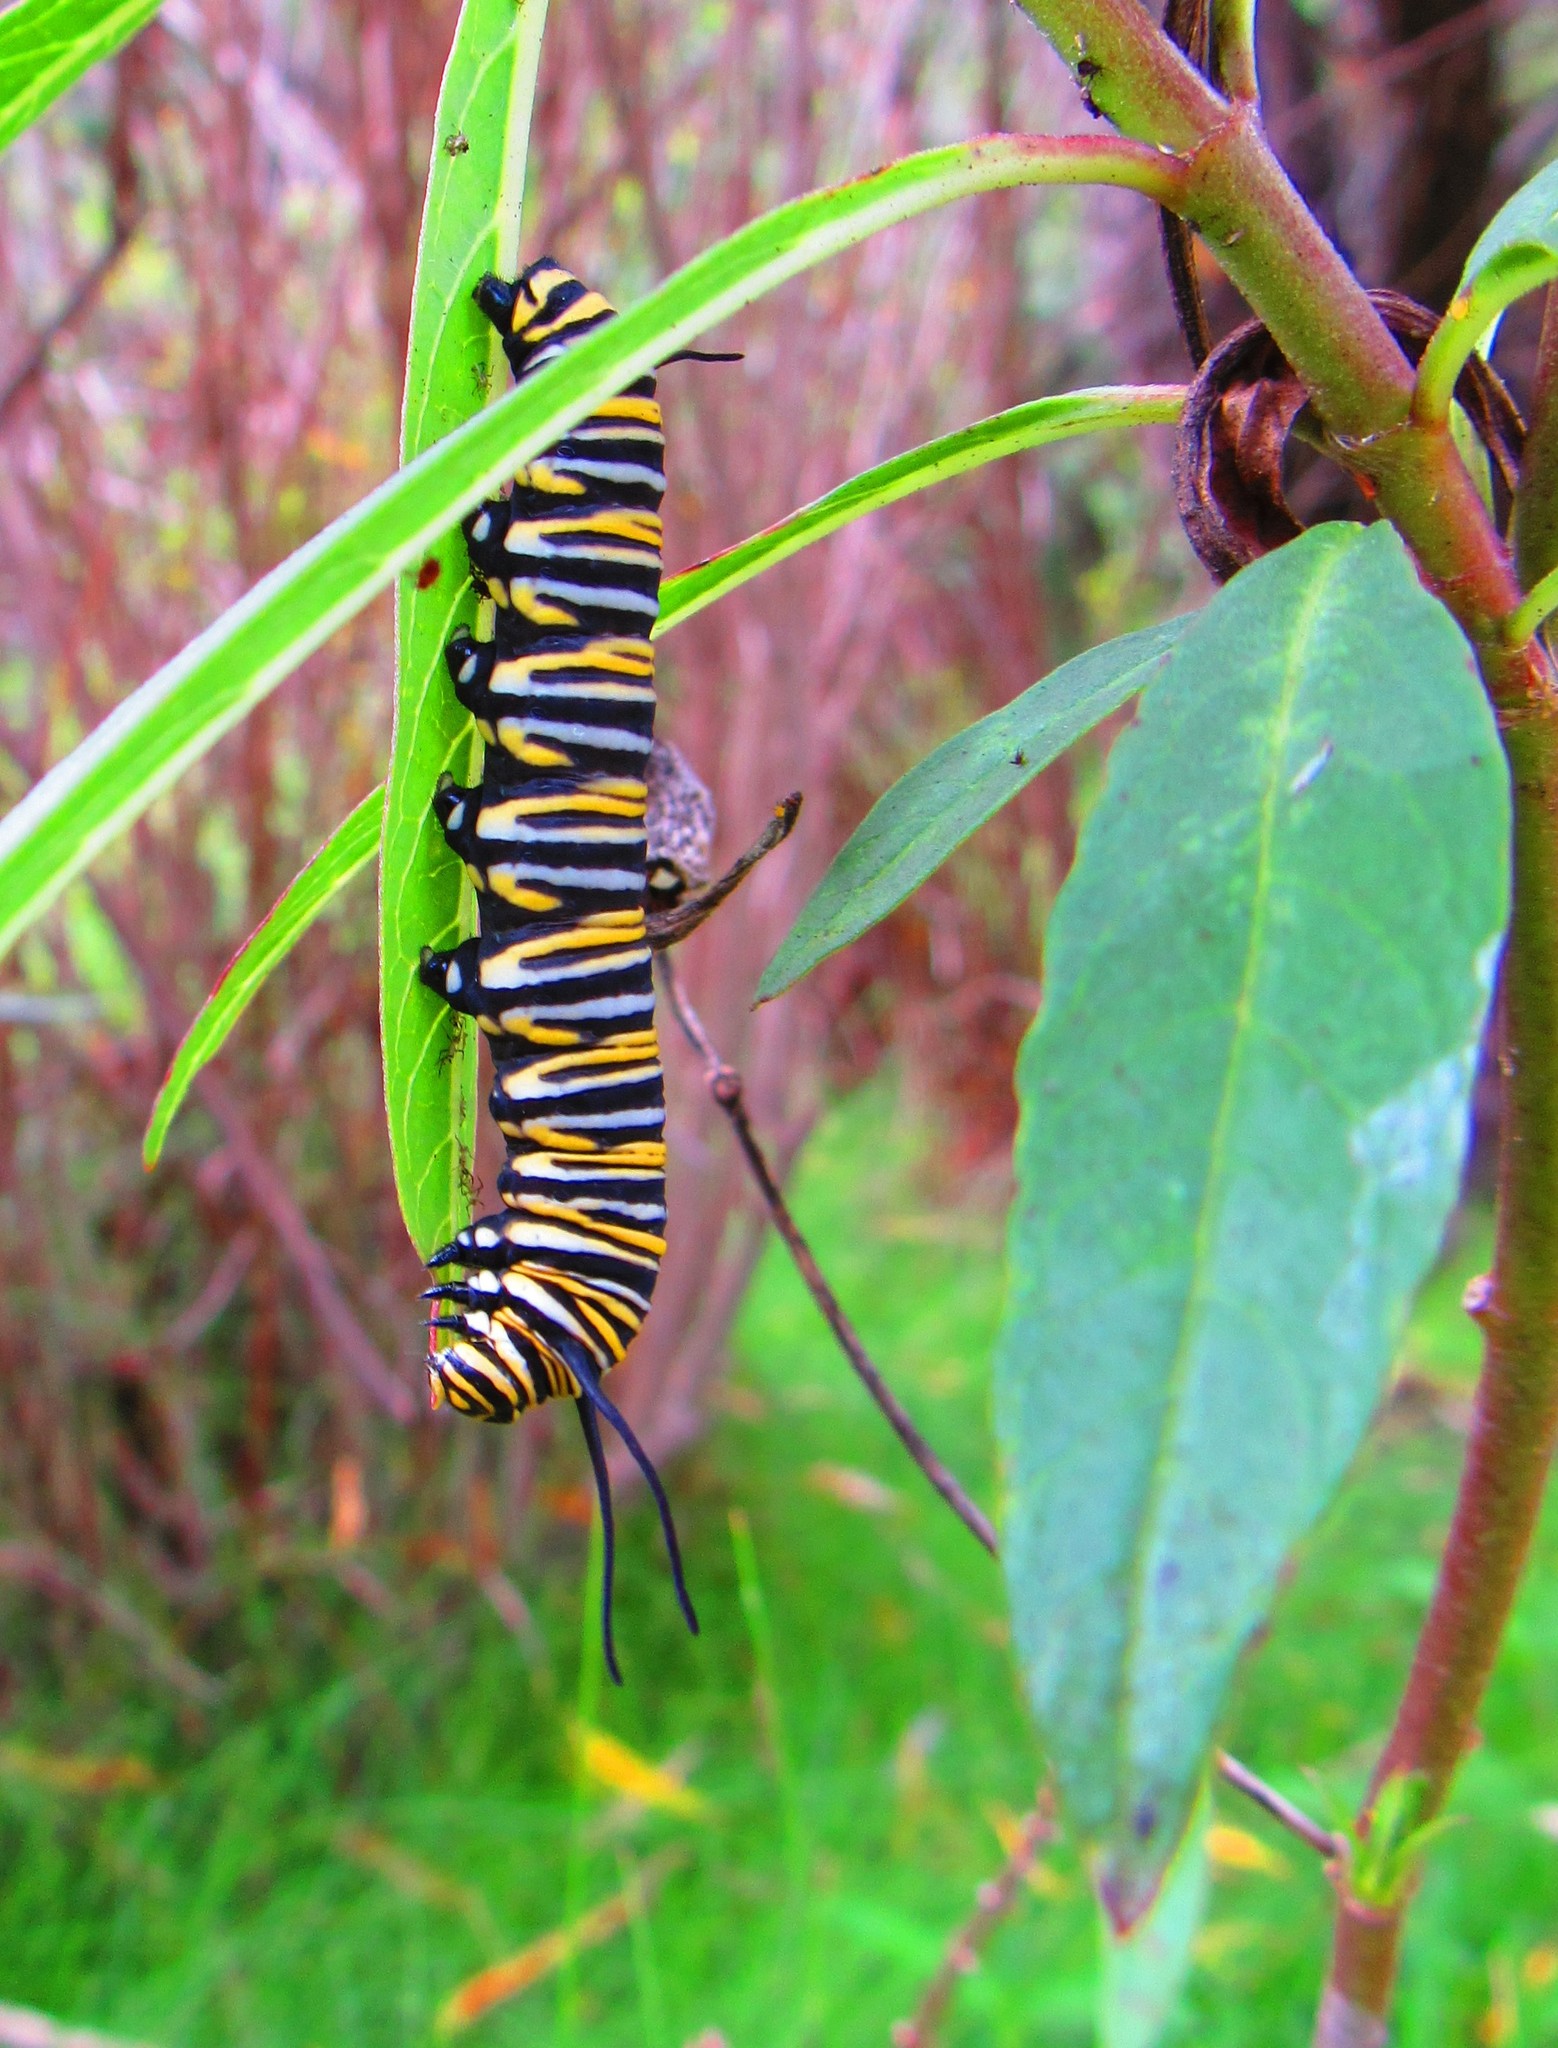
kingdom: Animalia
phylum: Arthropoda
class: Insecta
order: Lepidoptera
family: Nymphalidae
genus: Danaus
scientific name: Danaus plexippus
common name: Monarch
